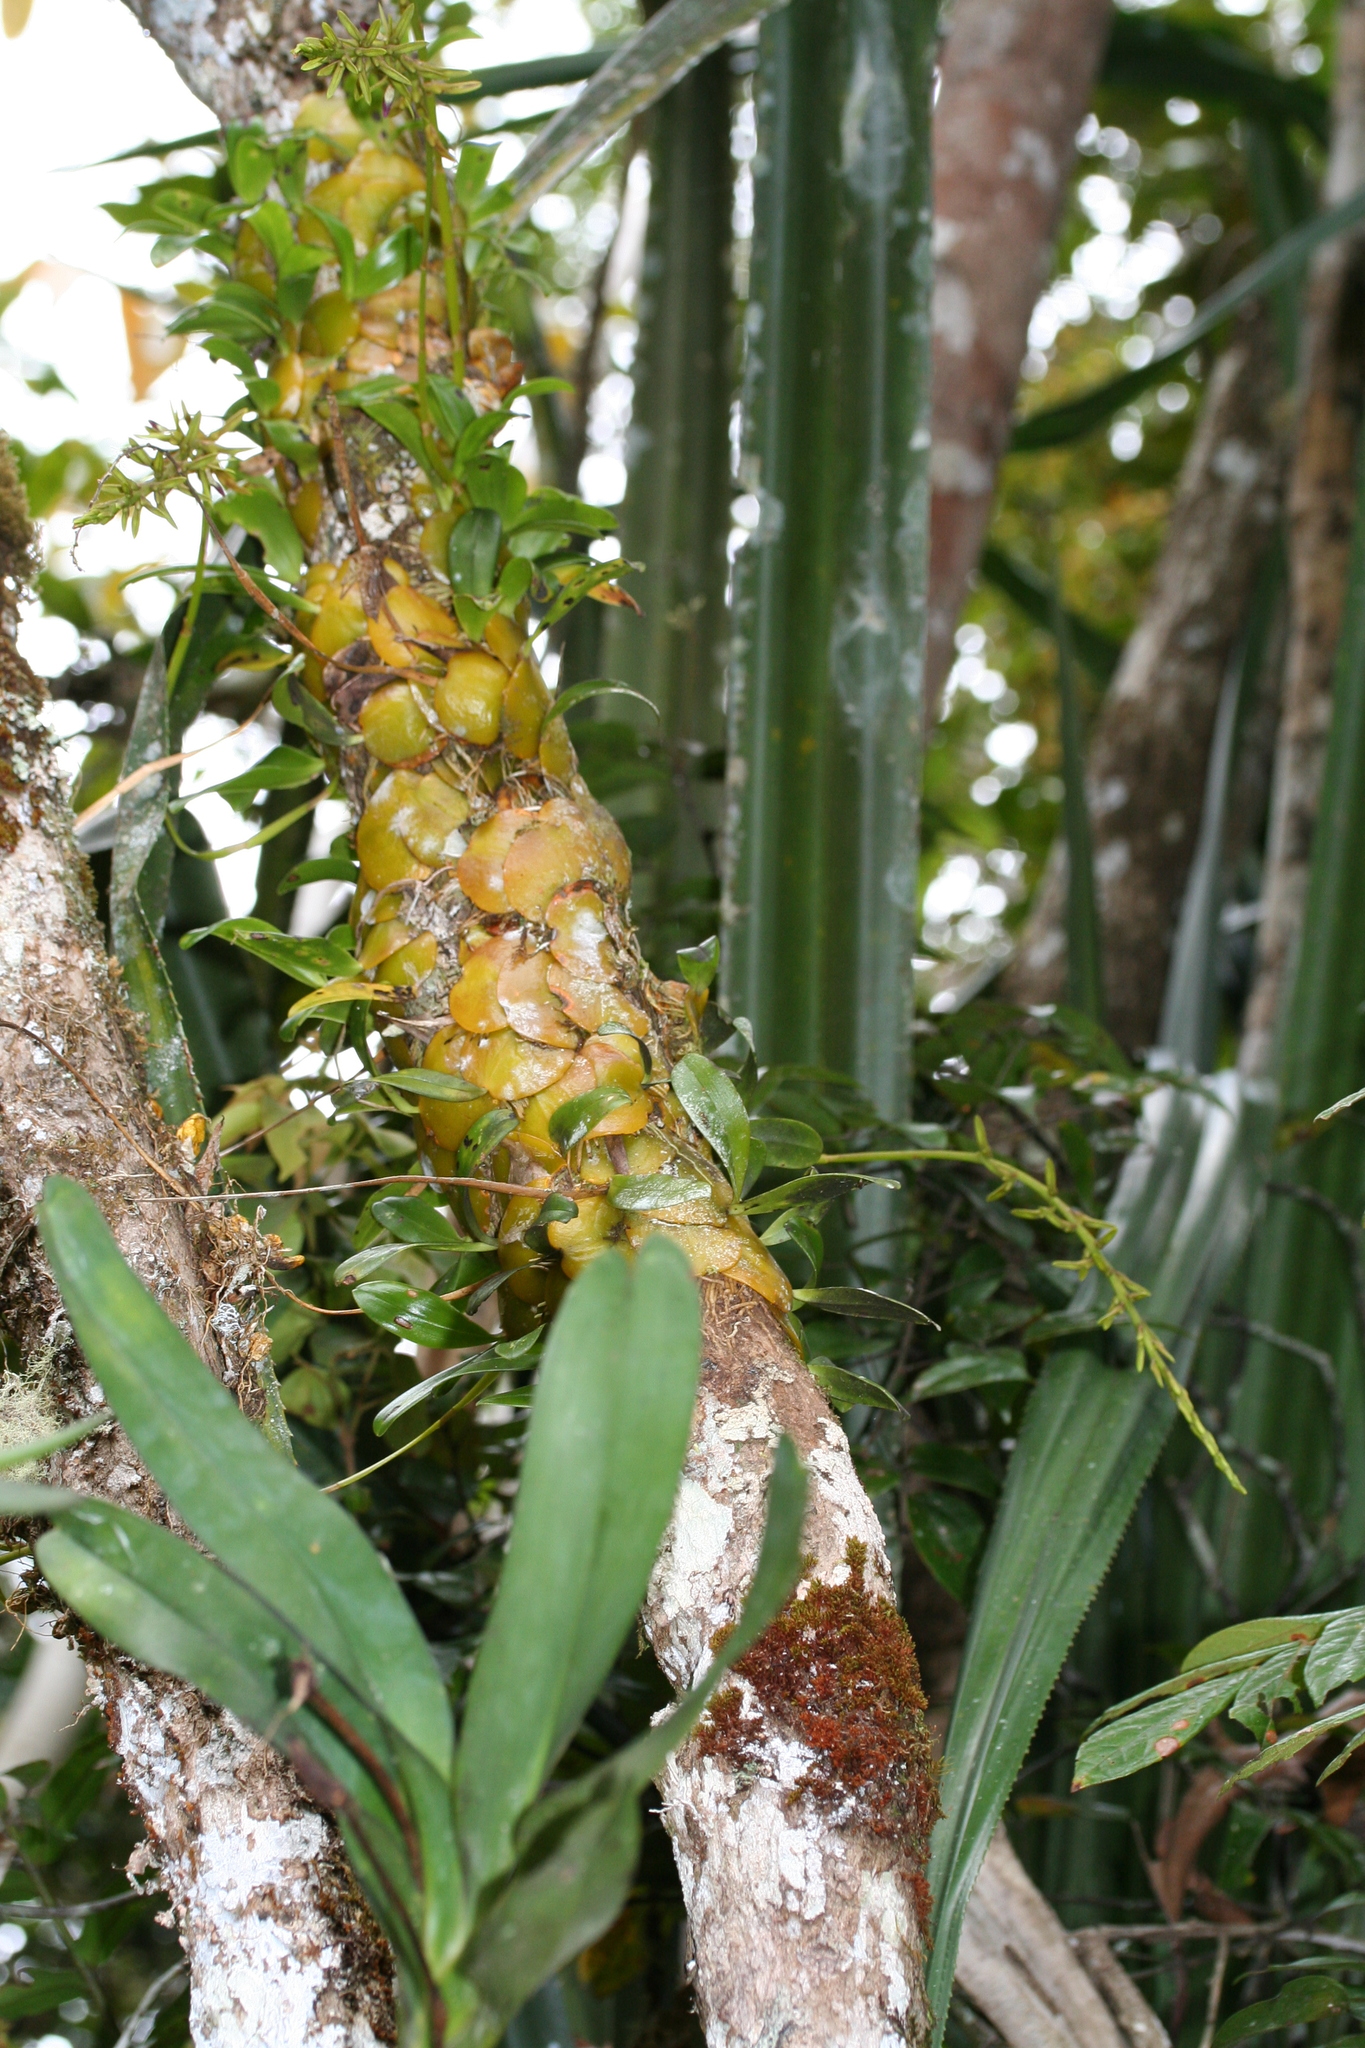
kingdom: Plantae
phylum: Tracheophyta
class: Liliopsida
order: Asparagales
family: Orchidaceae
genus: Bulbophyllum
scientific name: Bulbophyllum cardiobulbum
